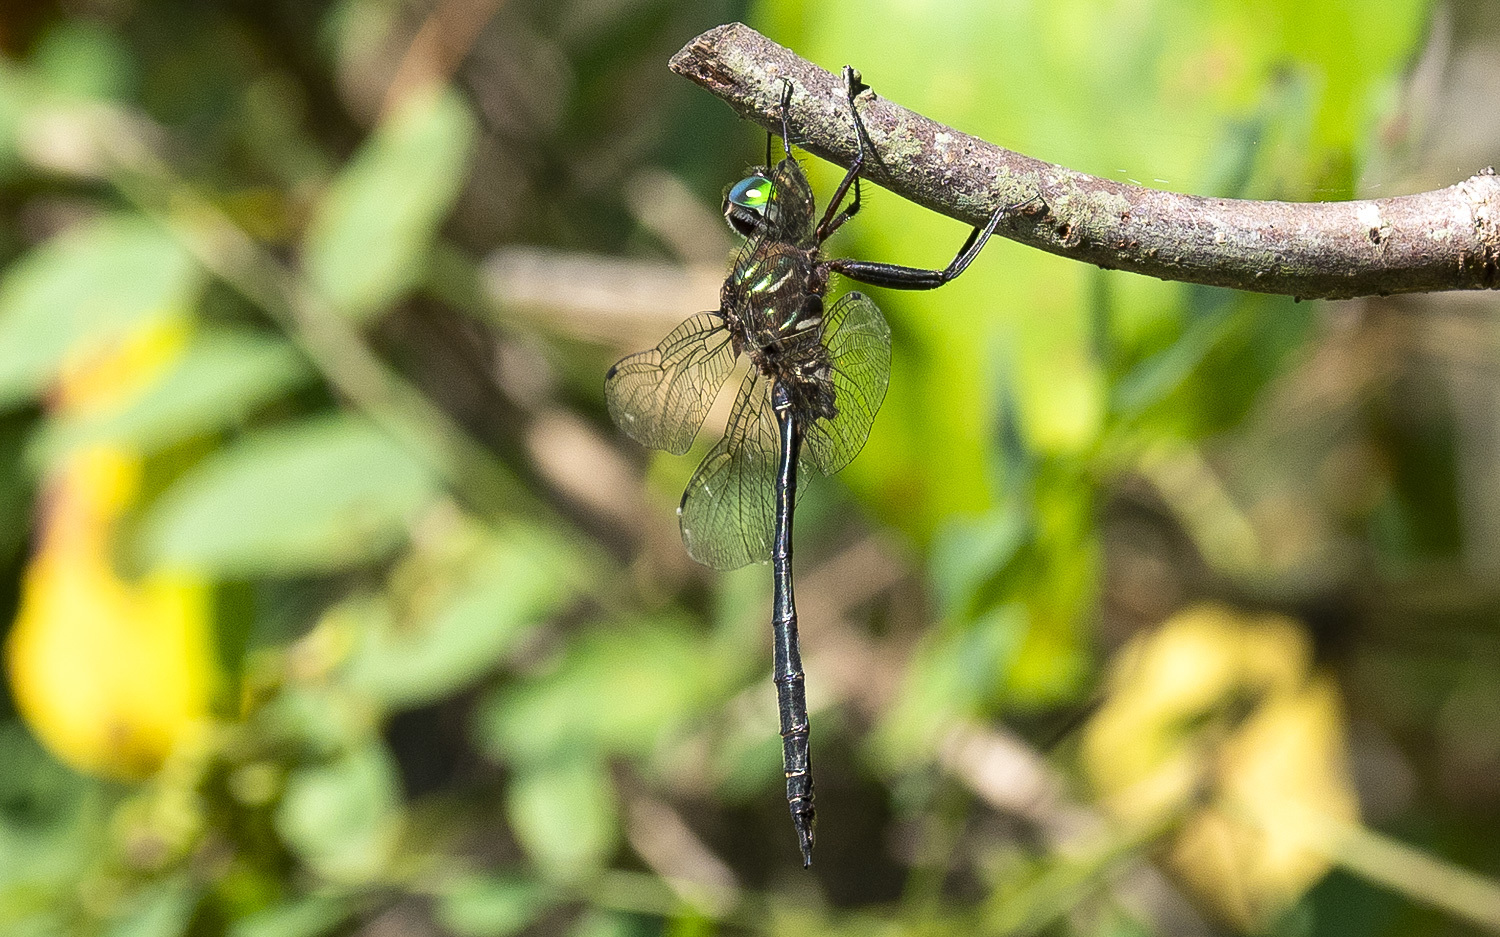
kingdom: Animalia
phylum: Arthropoda
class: Insecta
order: Odonata
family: Corduliidae
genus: Somatochlora
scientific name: Somatochlora filosa
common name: Fine-lined emerald
